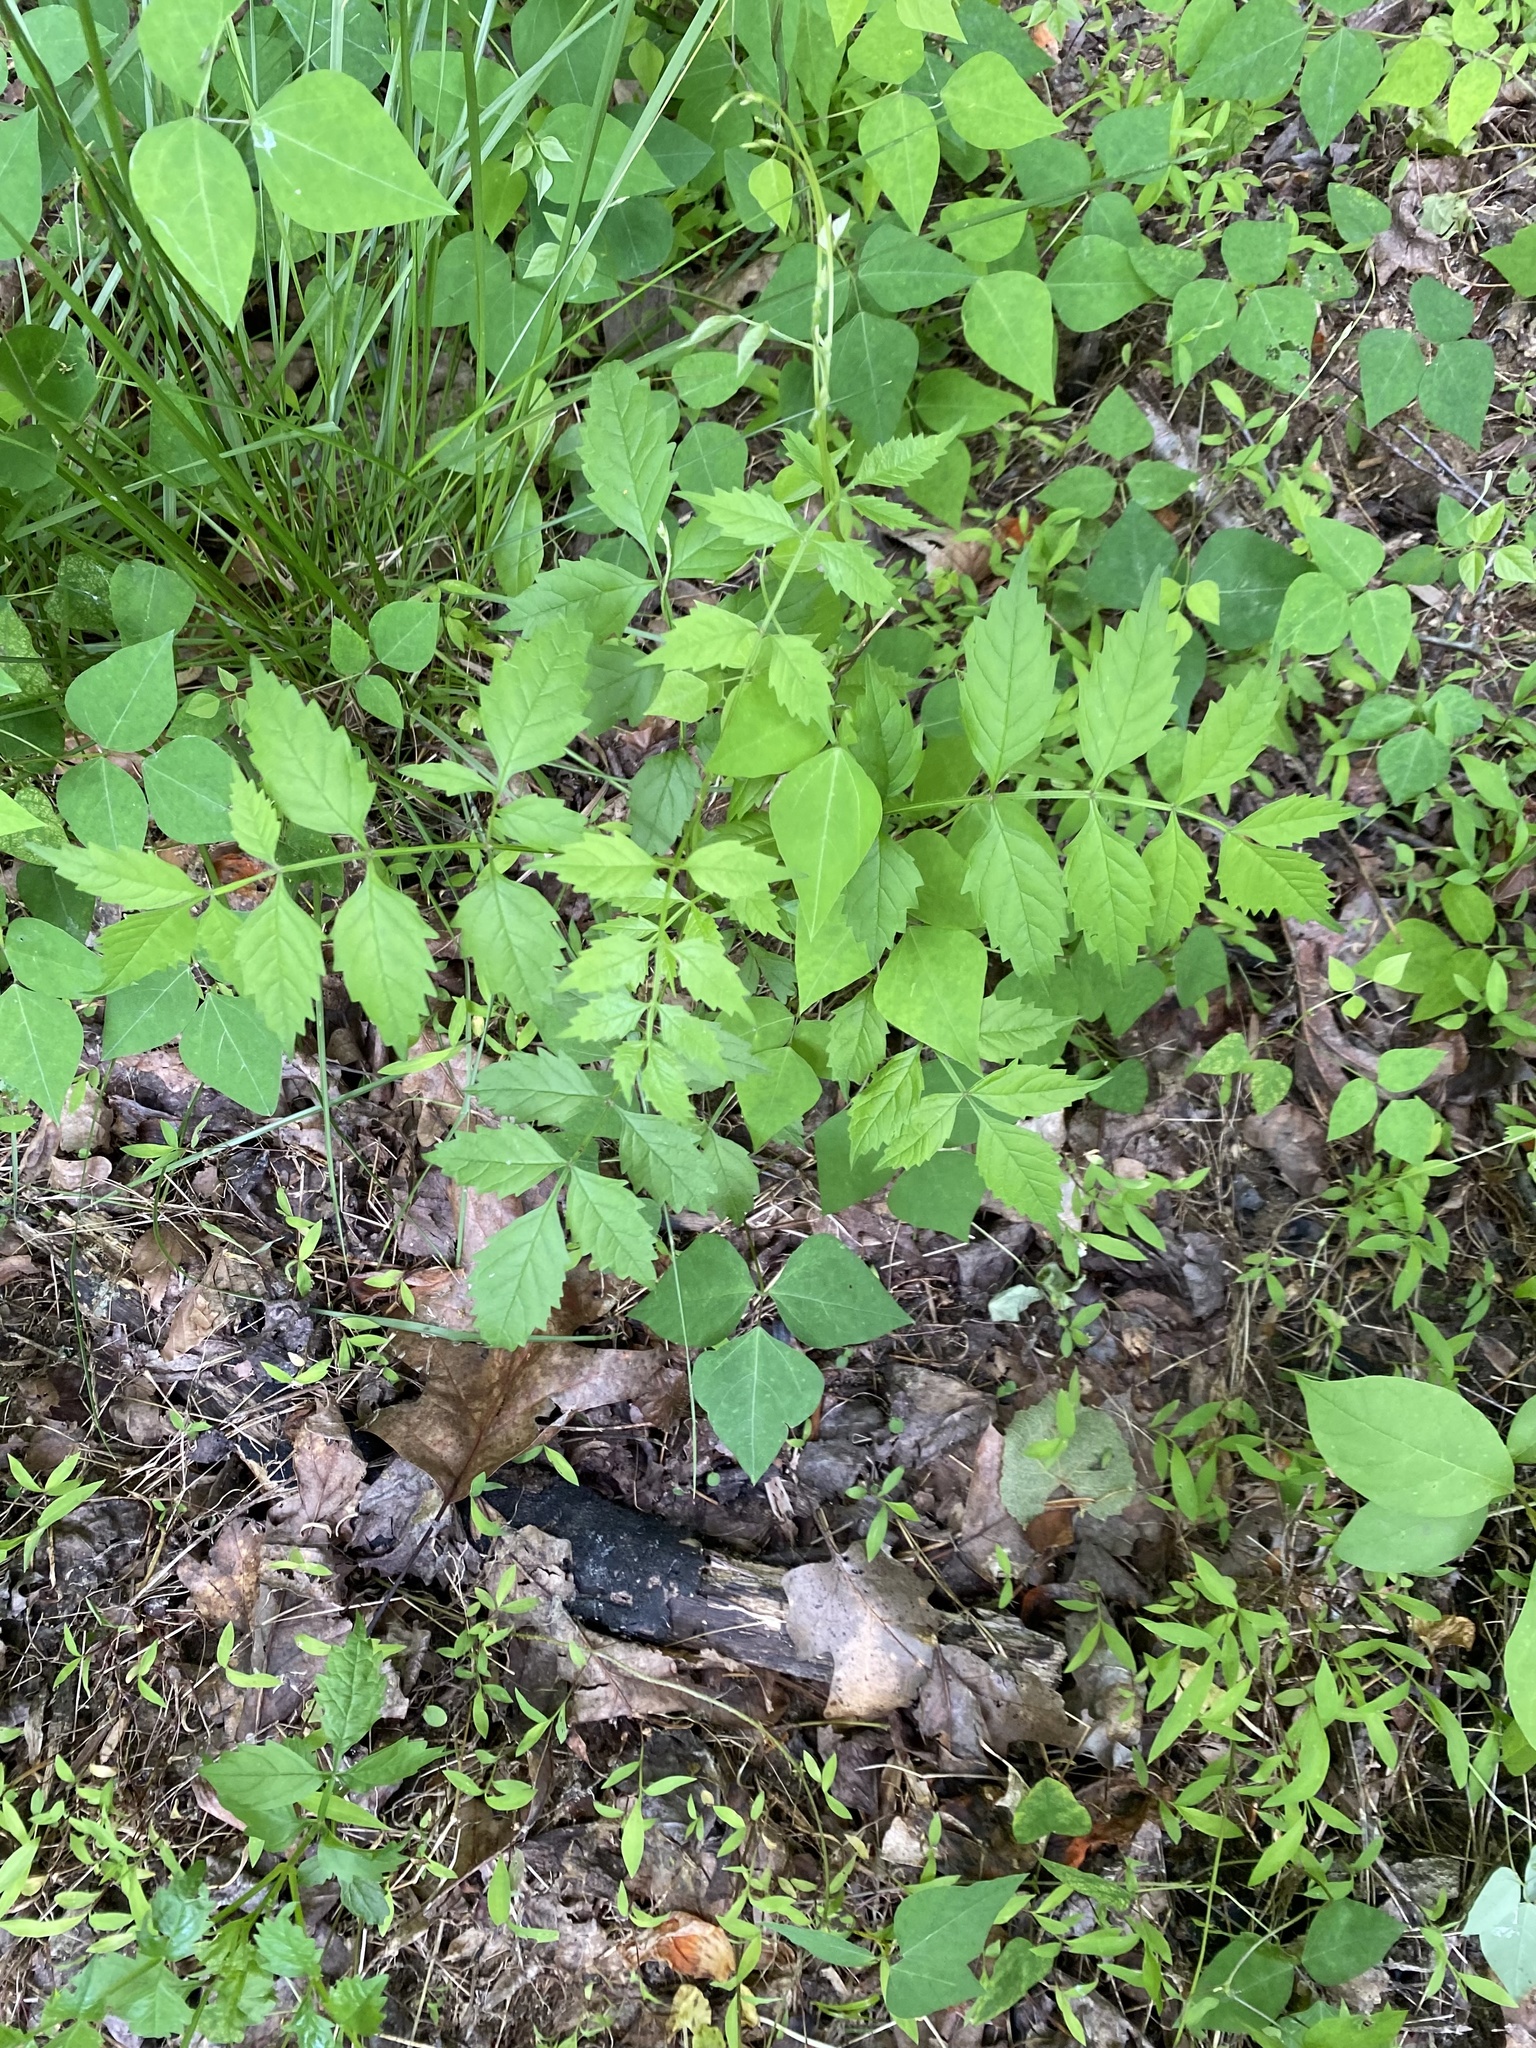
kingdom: Plantae
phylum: Tracheophyta
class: Magnoliopsida
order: Lamiales
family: Bignoniaceae
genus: Campsis
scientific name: Campsis radicans
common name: Trumpet-creeper
